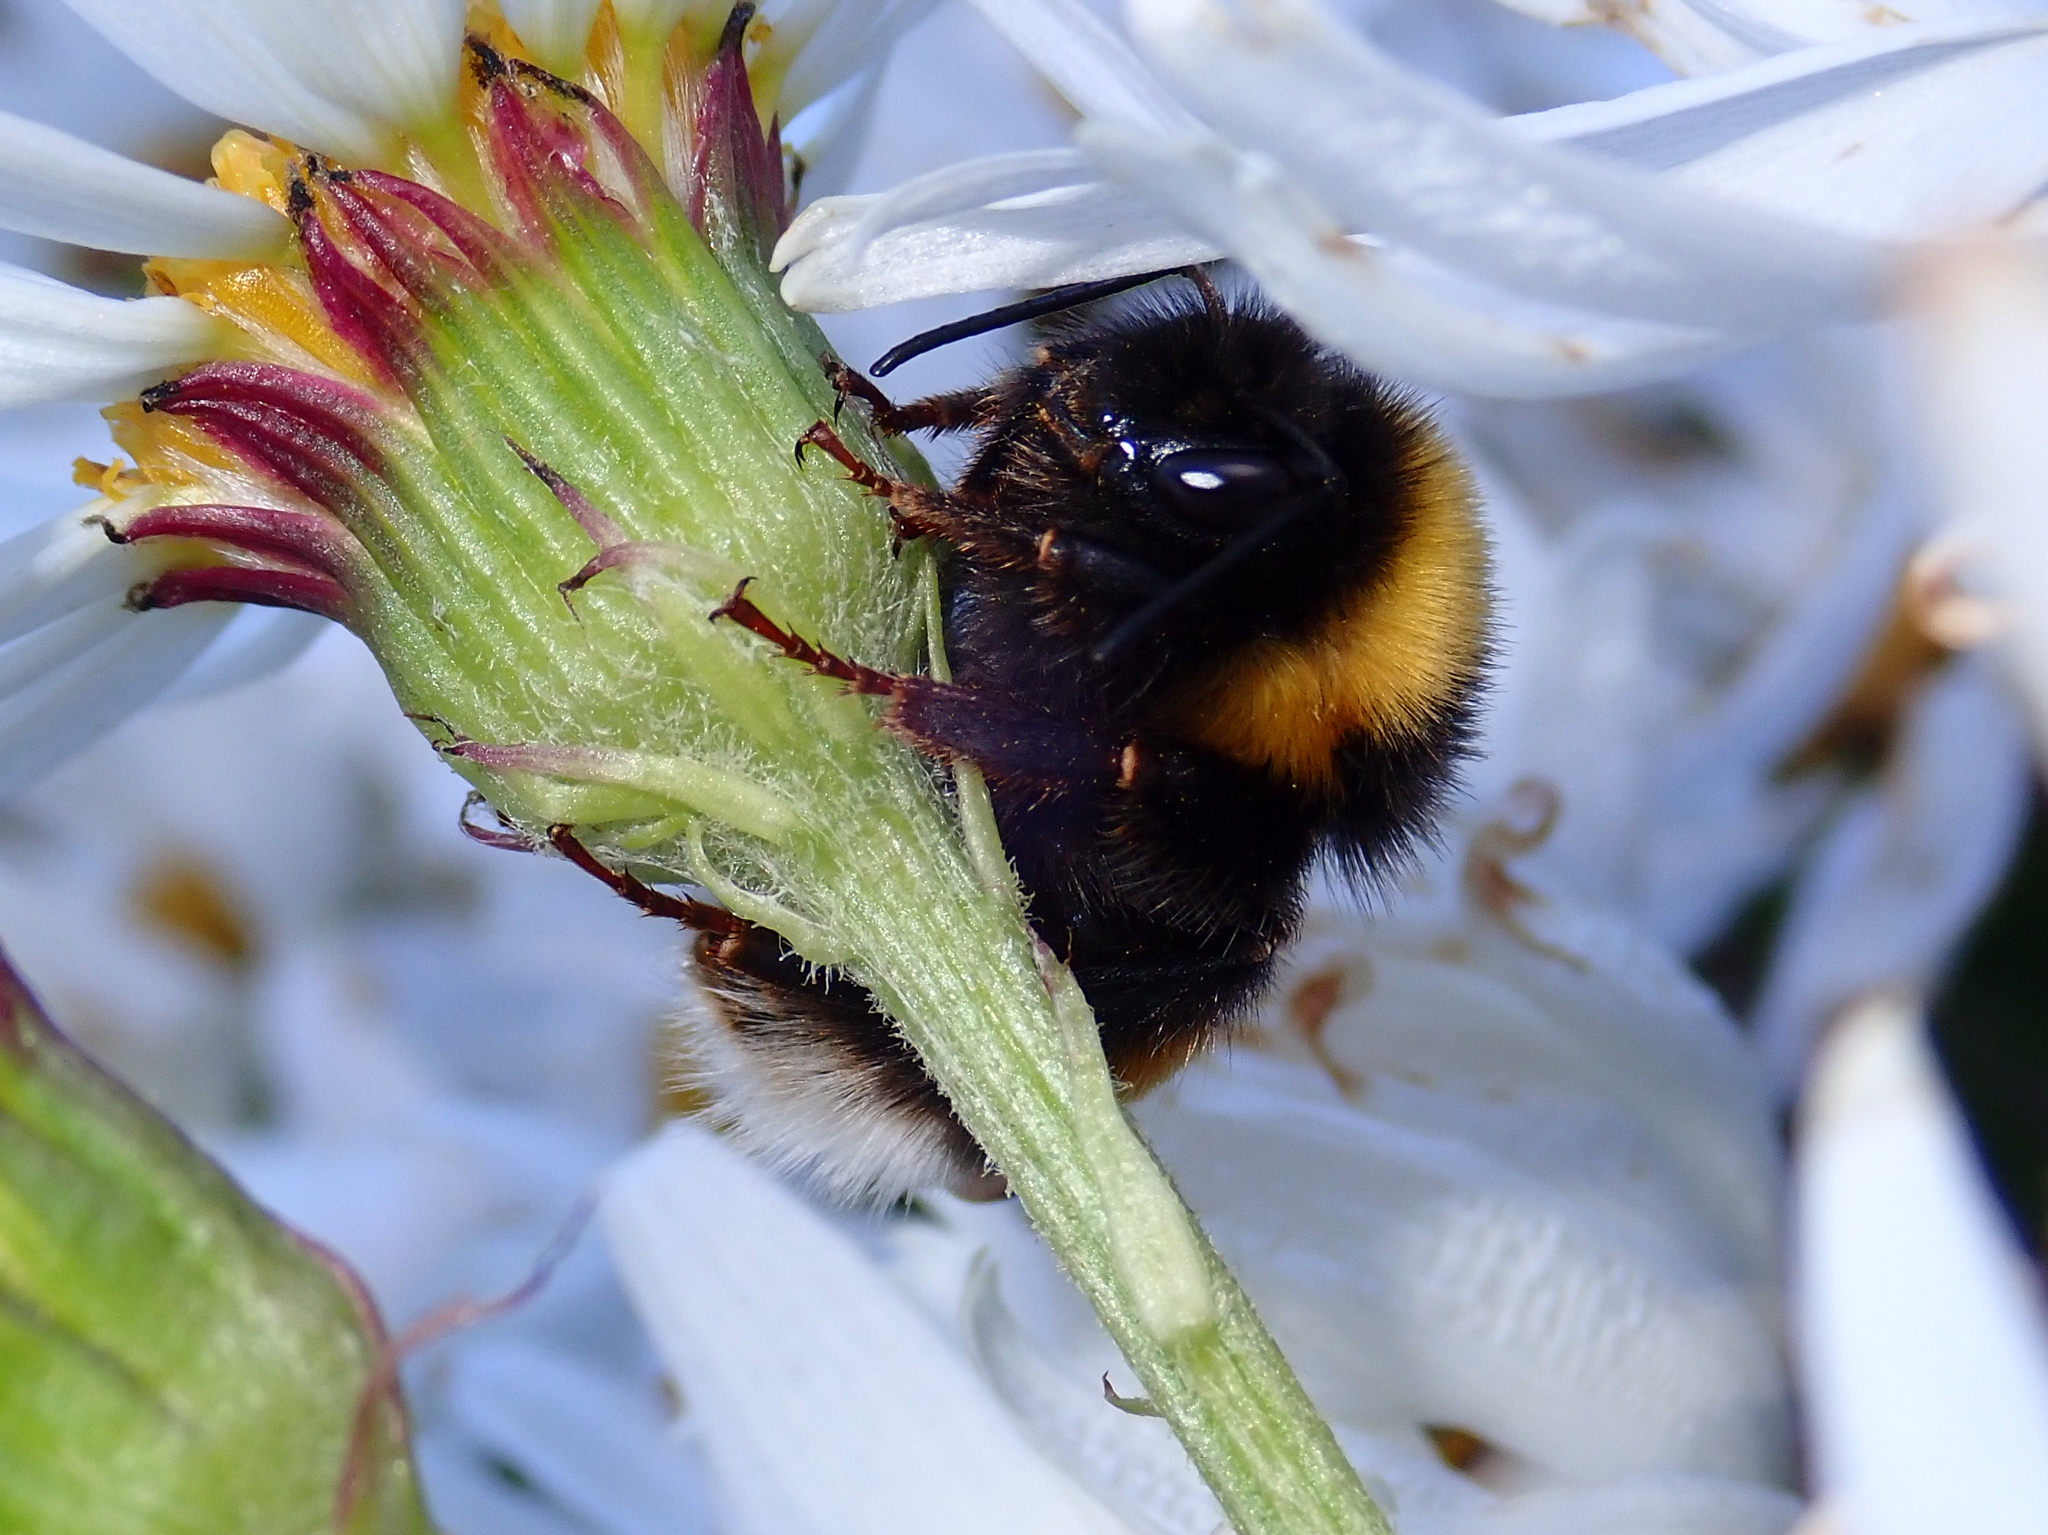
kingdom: Animalia
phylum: Arthropoda
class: Insecta
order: Hymenoptera
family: Apidae
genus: Bombus
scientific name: Bombus terrestris
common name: Buff-tailed bumblebee
